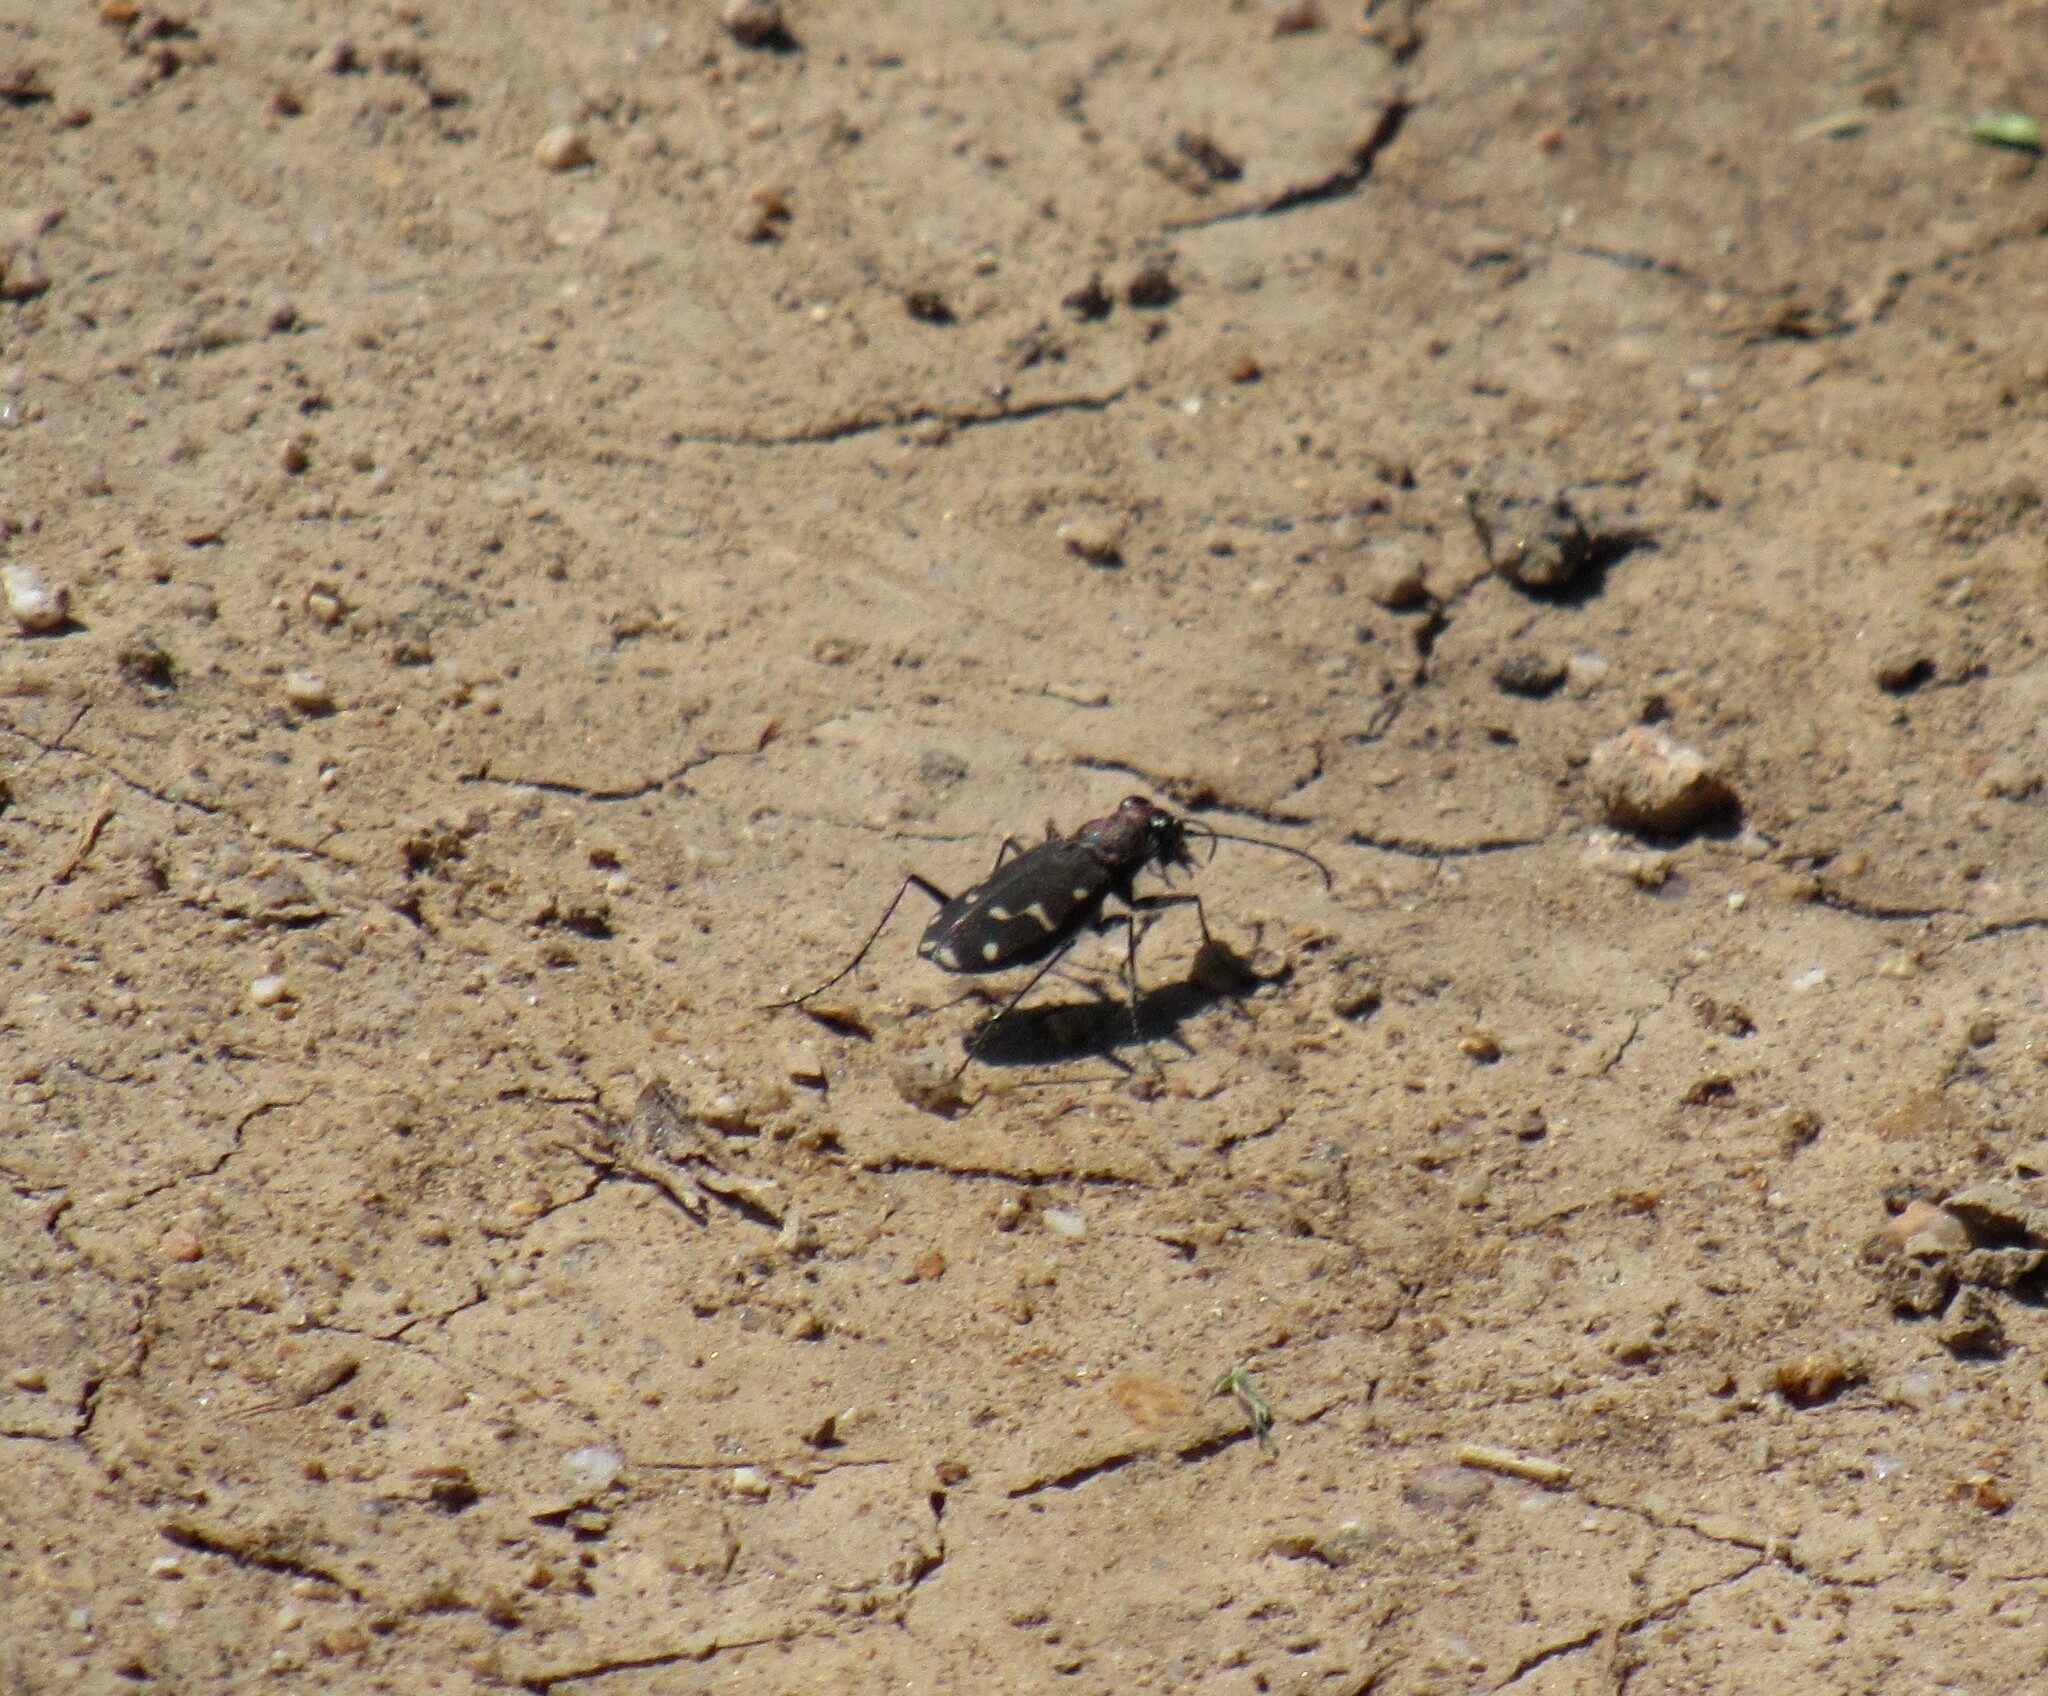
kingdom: Animalia
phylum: Arthropoda
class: Insecta
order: Coleoptera
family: Carabidae
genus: Cicindela
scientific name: Cicindela oregona
